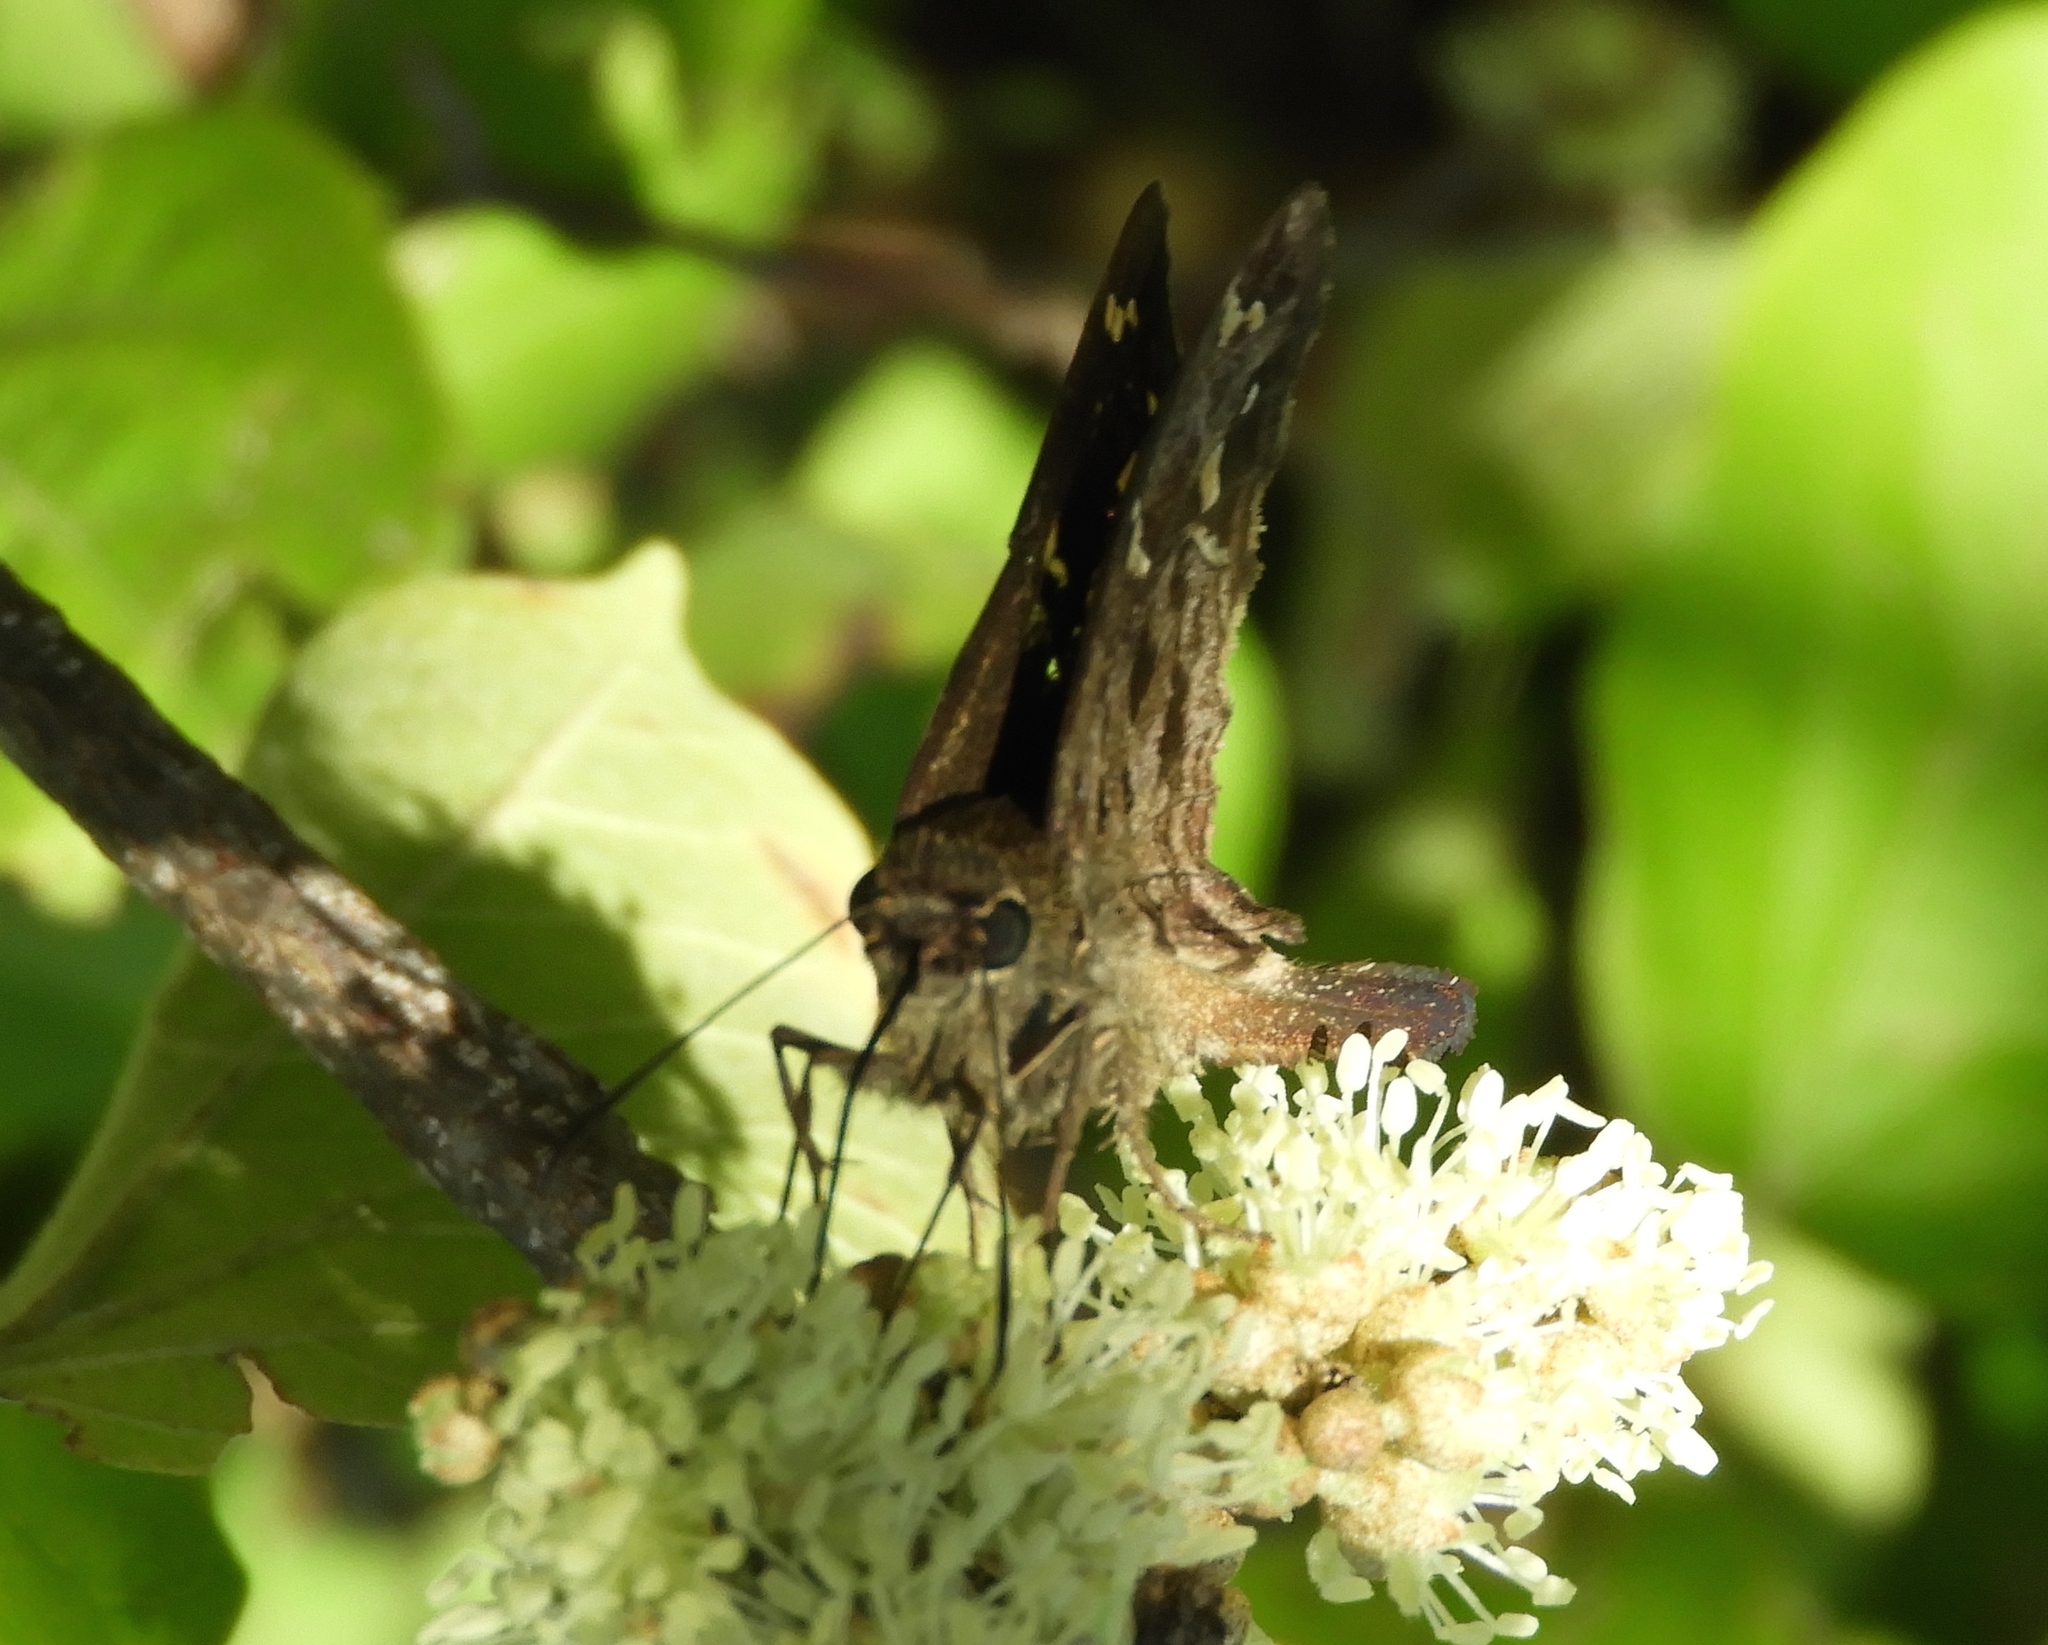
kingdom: Animalia
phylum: Arthropoda
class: Insecta
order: Lepidoptera
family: Hesperiidae
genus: Thorybes
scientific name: Thorybes
